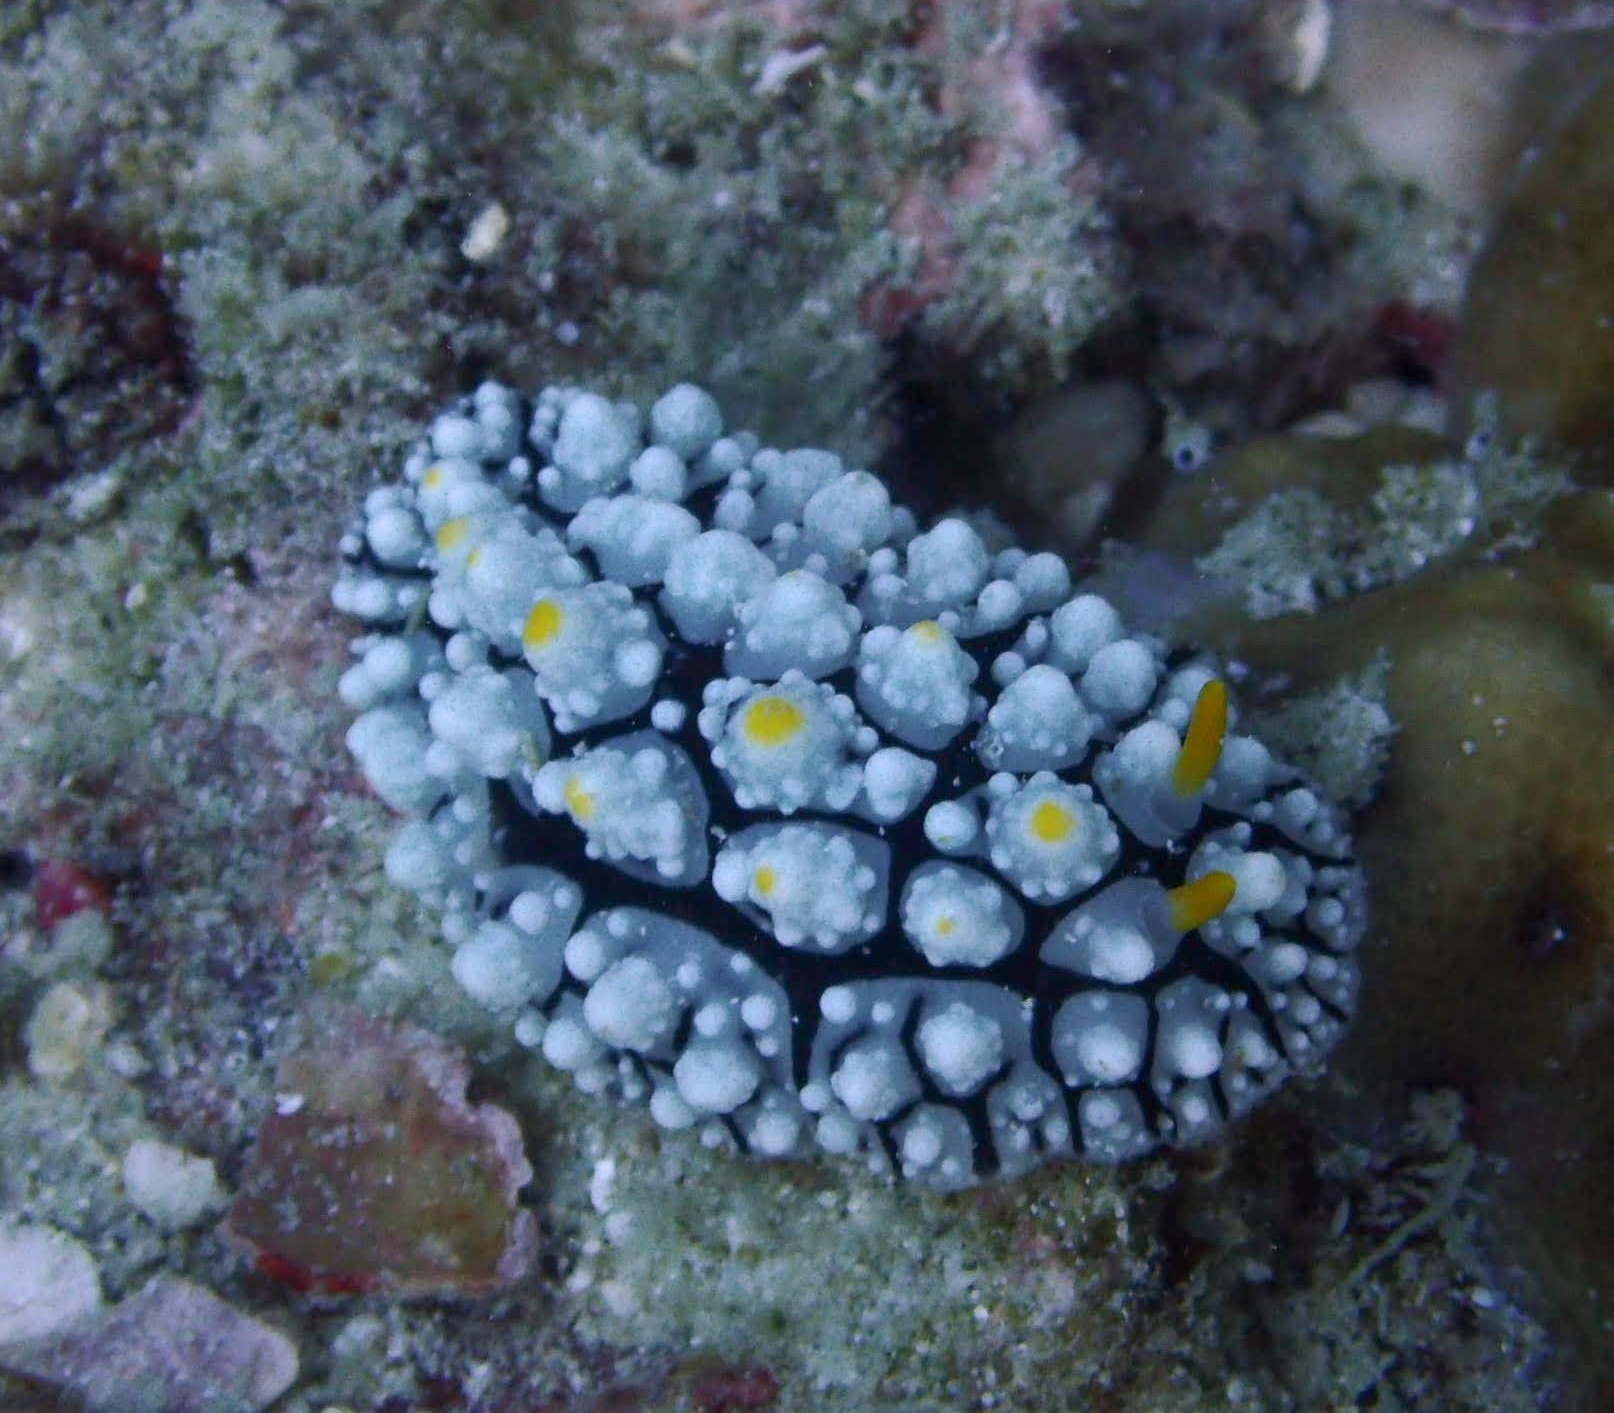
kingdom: Animalia
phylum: Mollusca
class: Gastropoda
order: Nudibranchia
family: Phyllidiidae
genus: Phyllidia
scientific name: Phyllidia elegans
